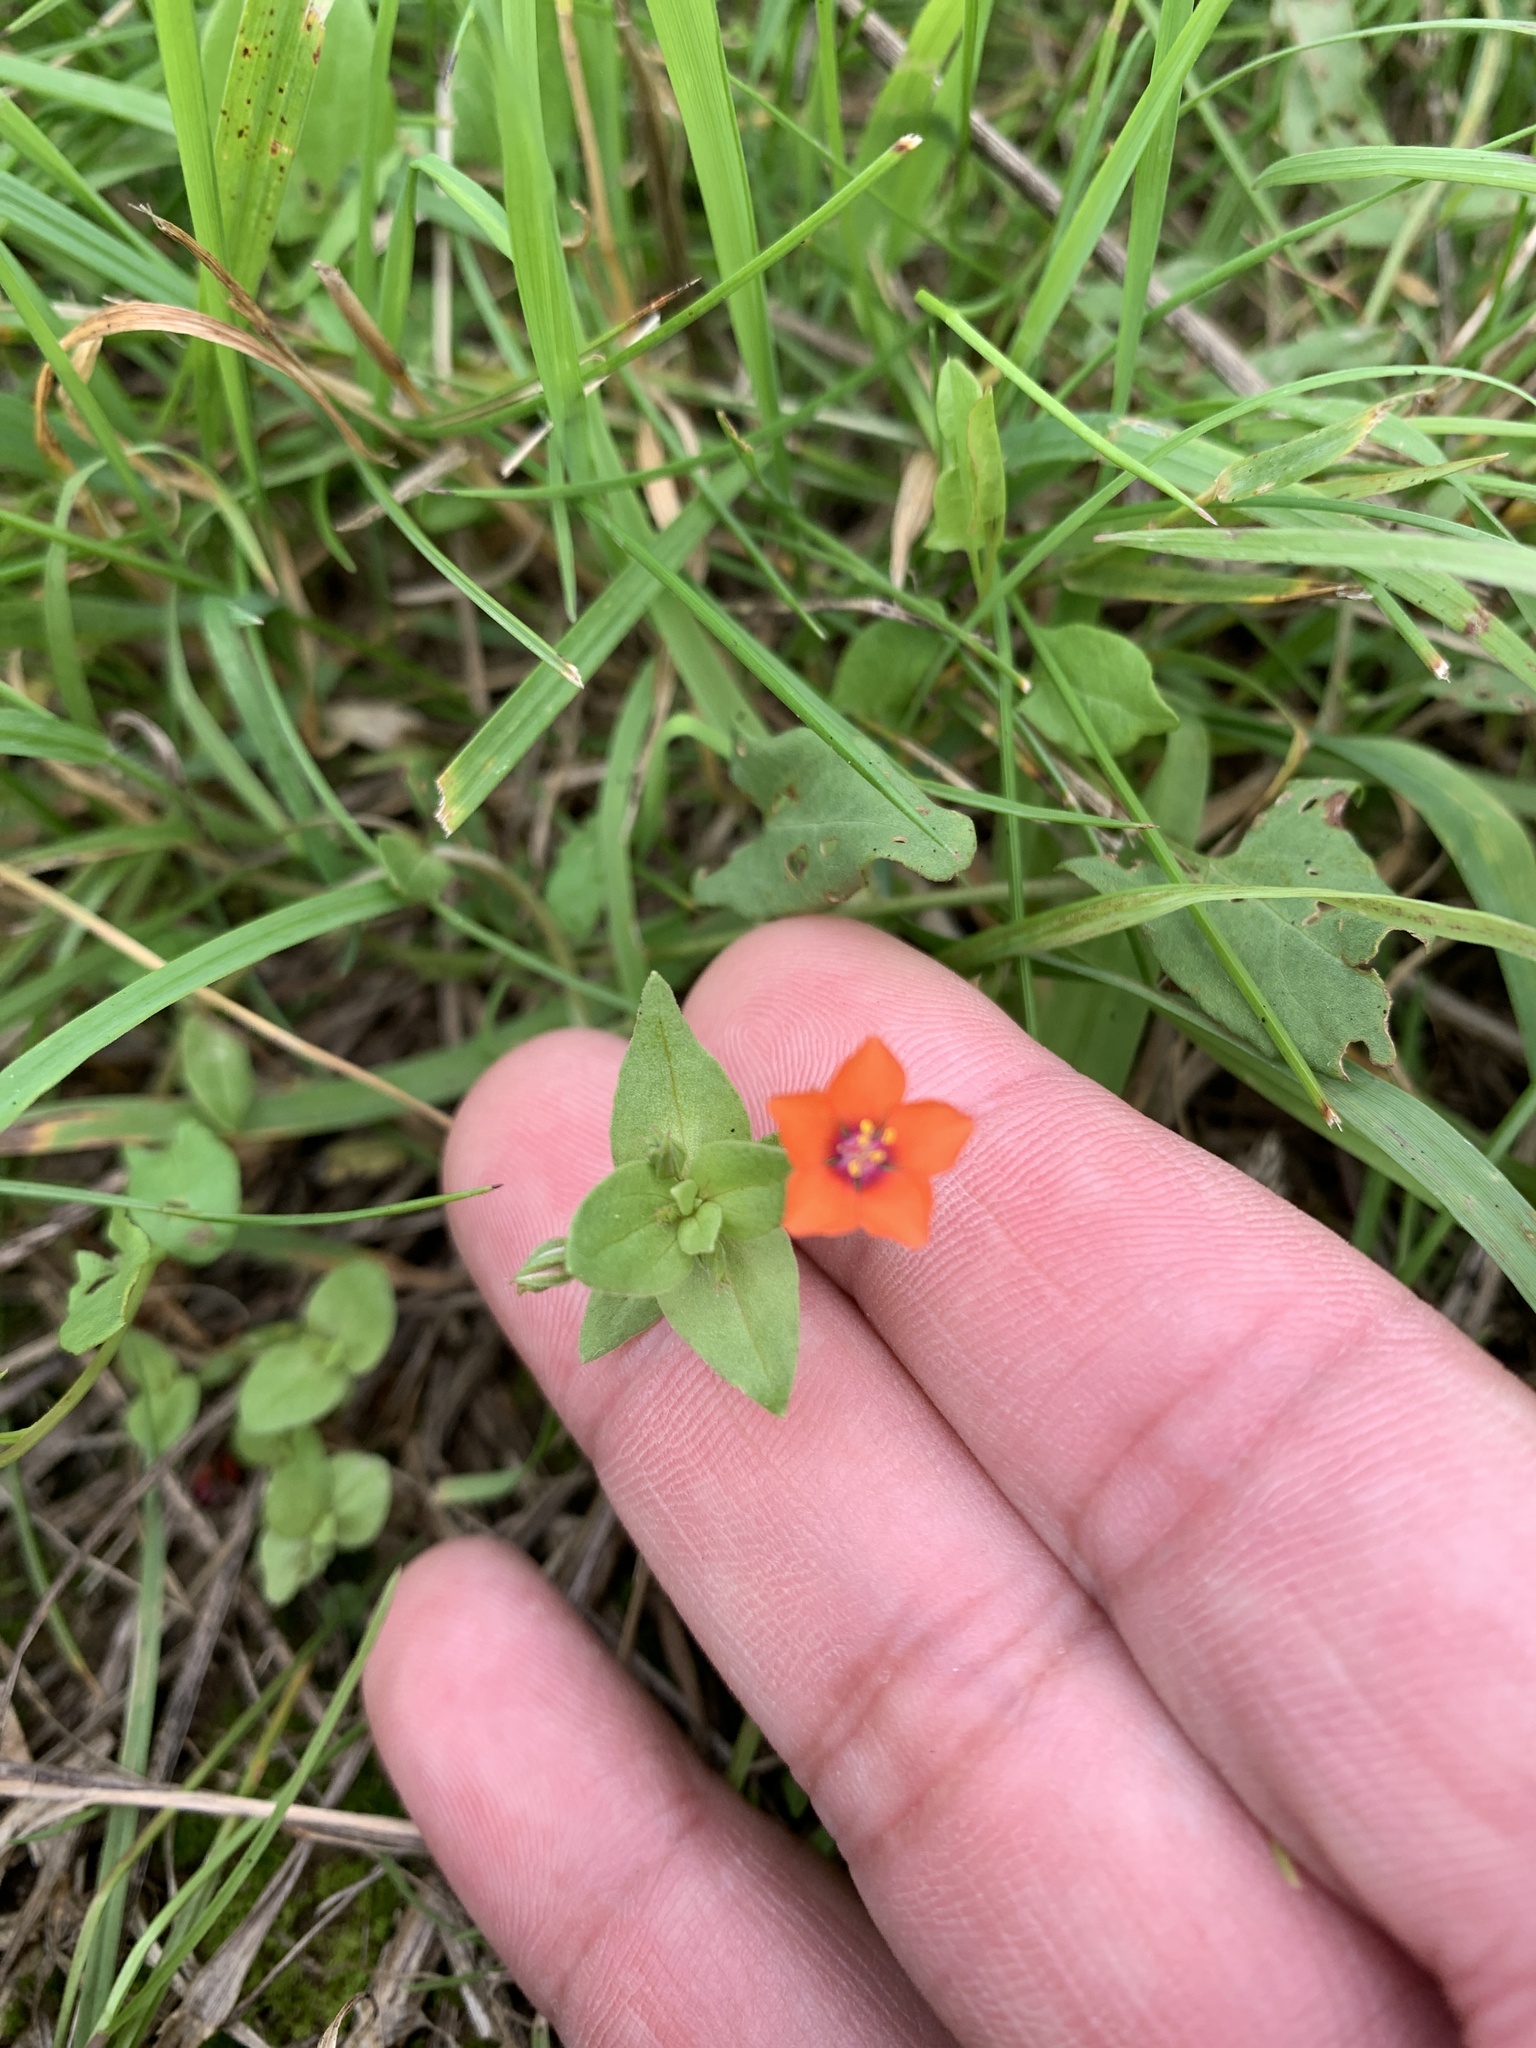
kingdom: Plantae
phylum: Tracheophyta
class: Magnoliopsida
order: Ericales
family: Primulaceae
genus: Lysimachia
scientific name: Lysimachia arvensis
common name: Scarlet pimpernel
